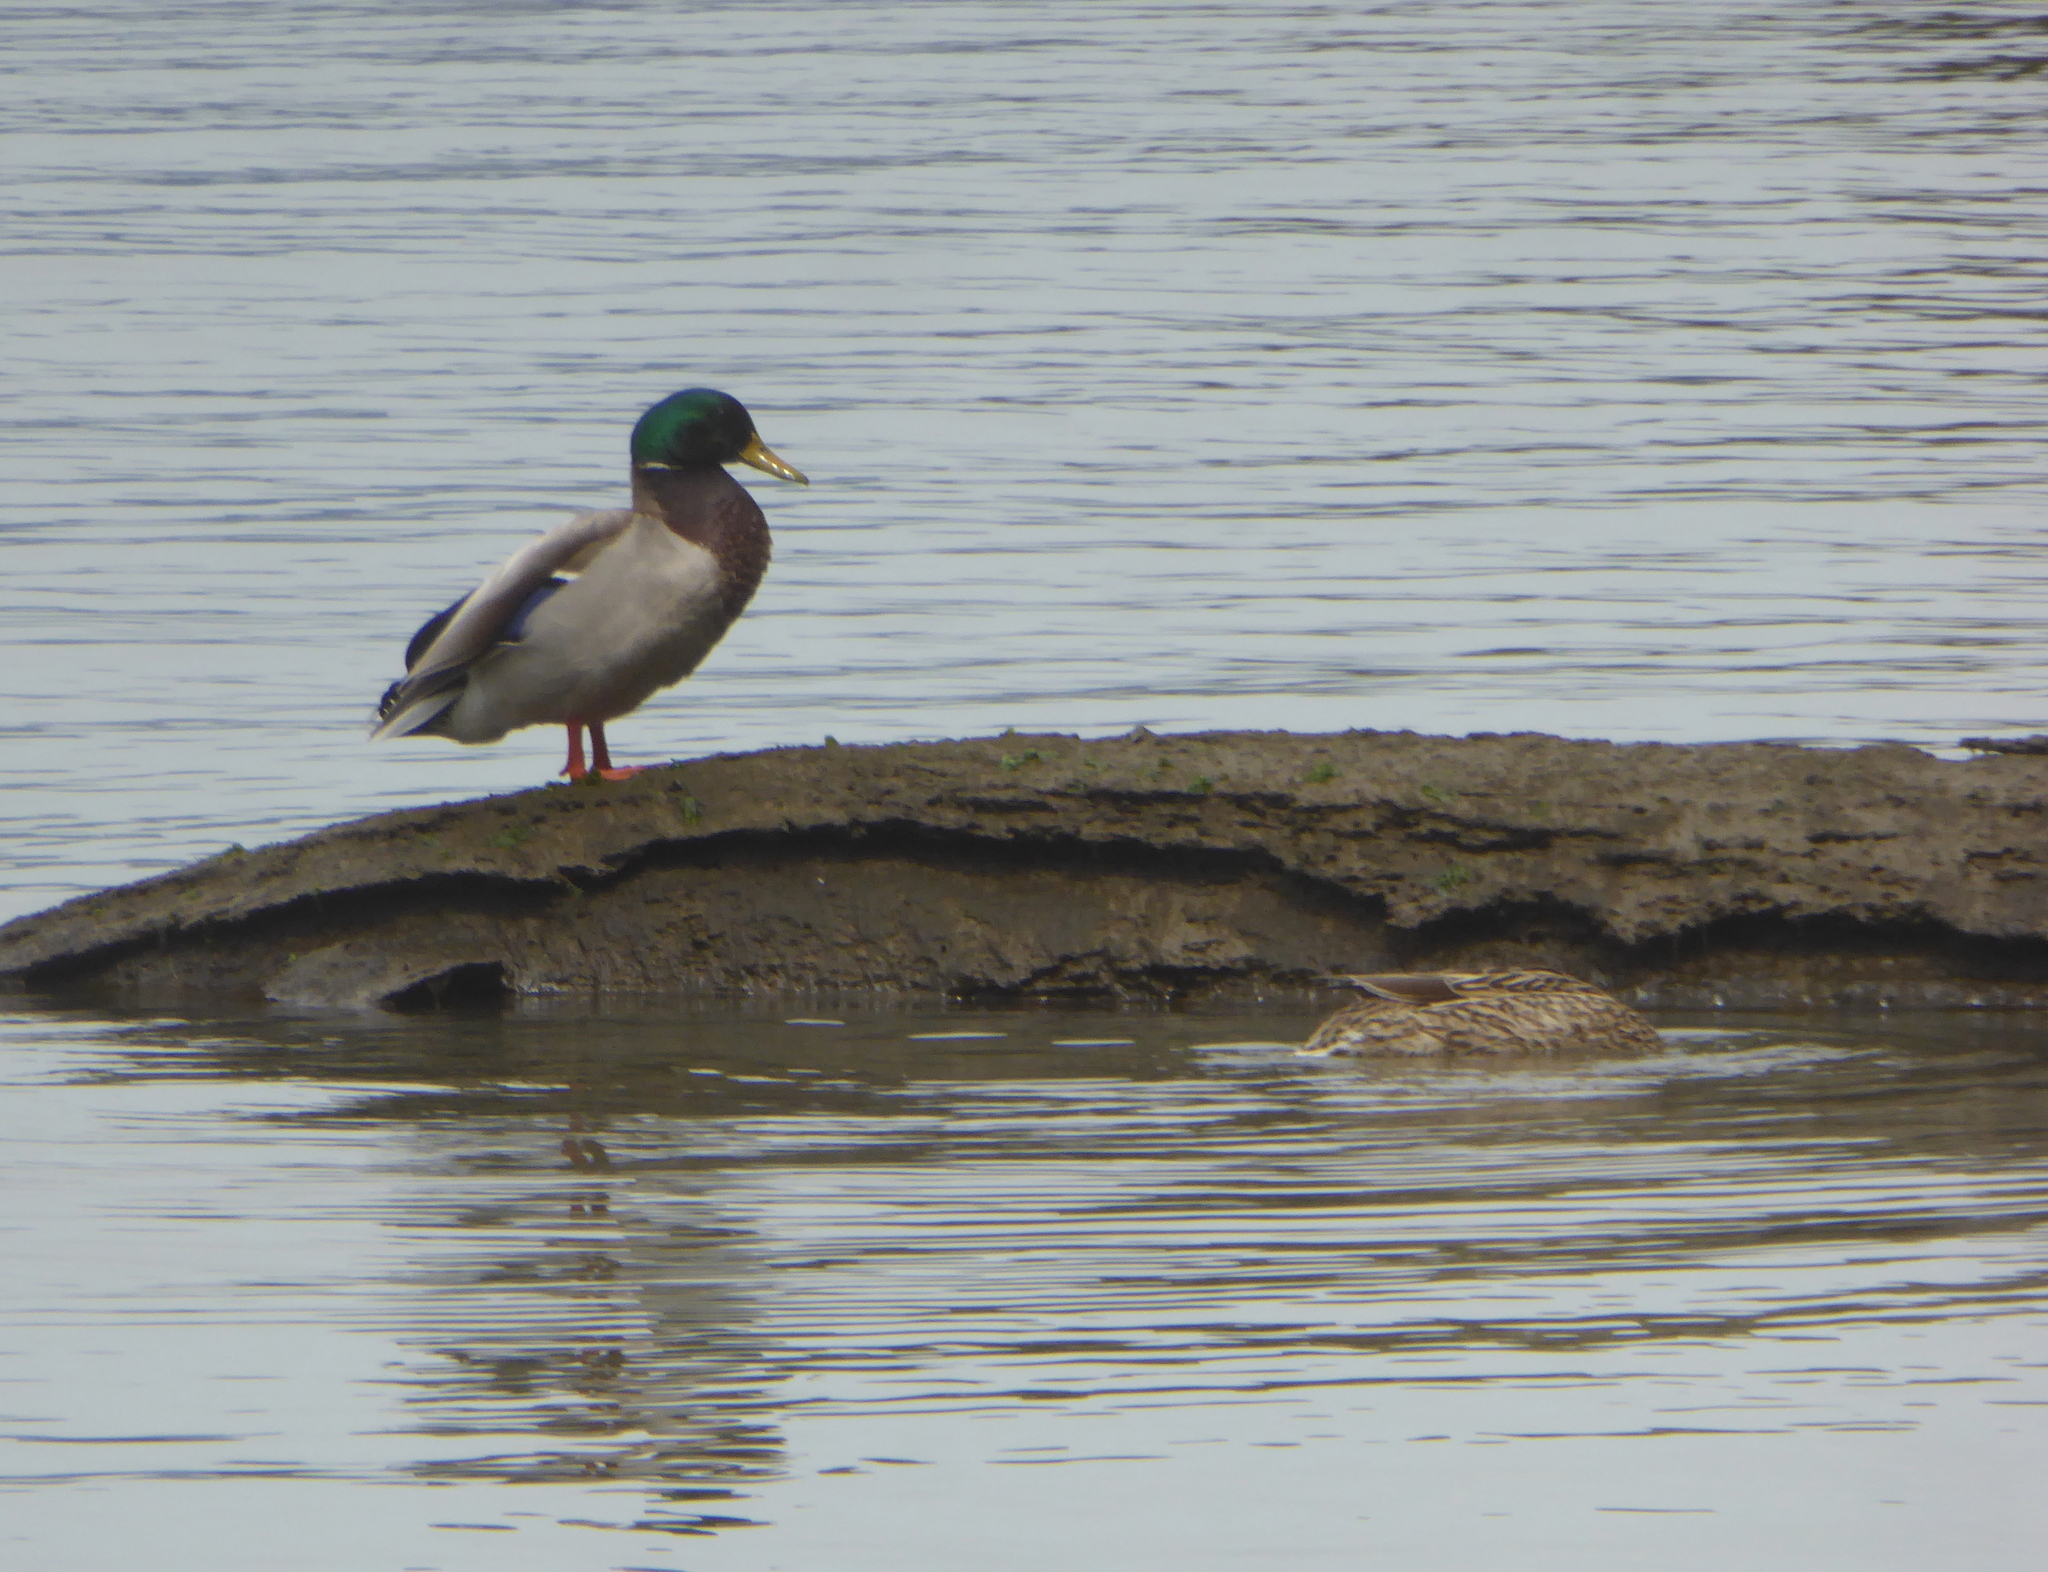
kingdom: Animalia
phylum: Chordata
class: Aves
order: Anseriformes
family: Anatidae
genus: Anas
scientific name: Anas platyrhynchos
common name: Mallard
